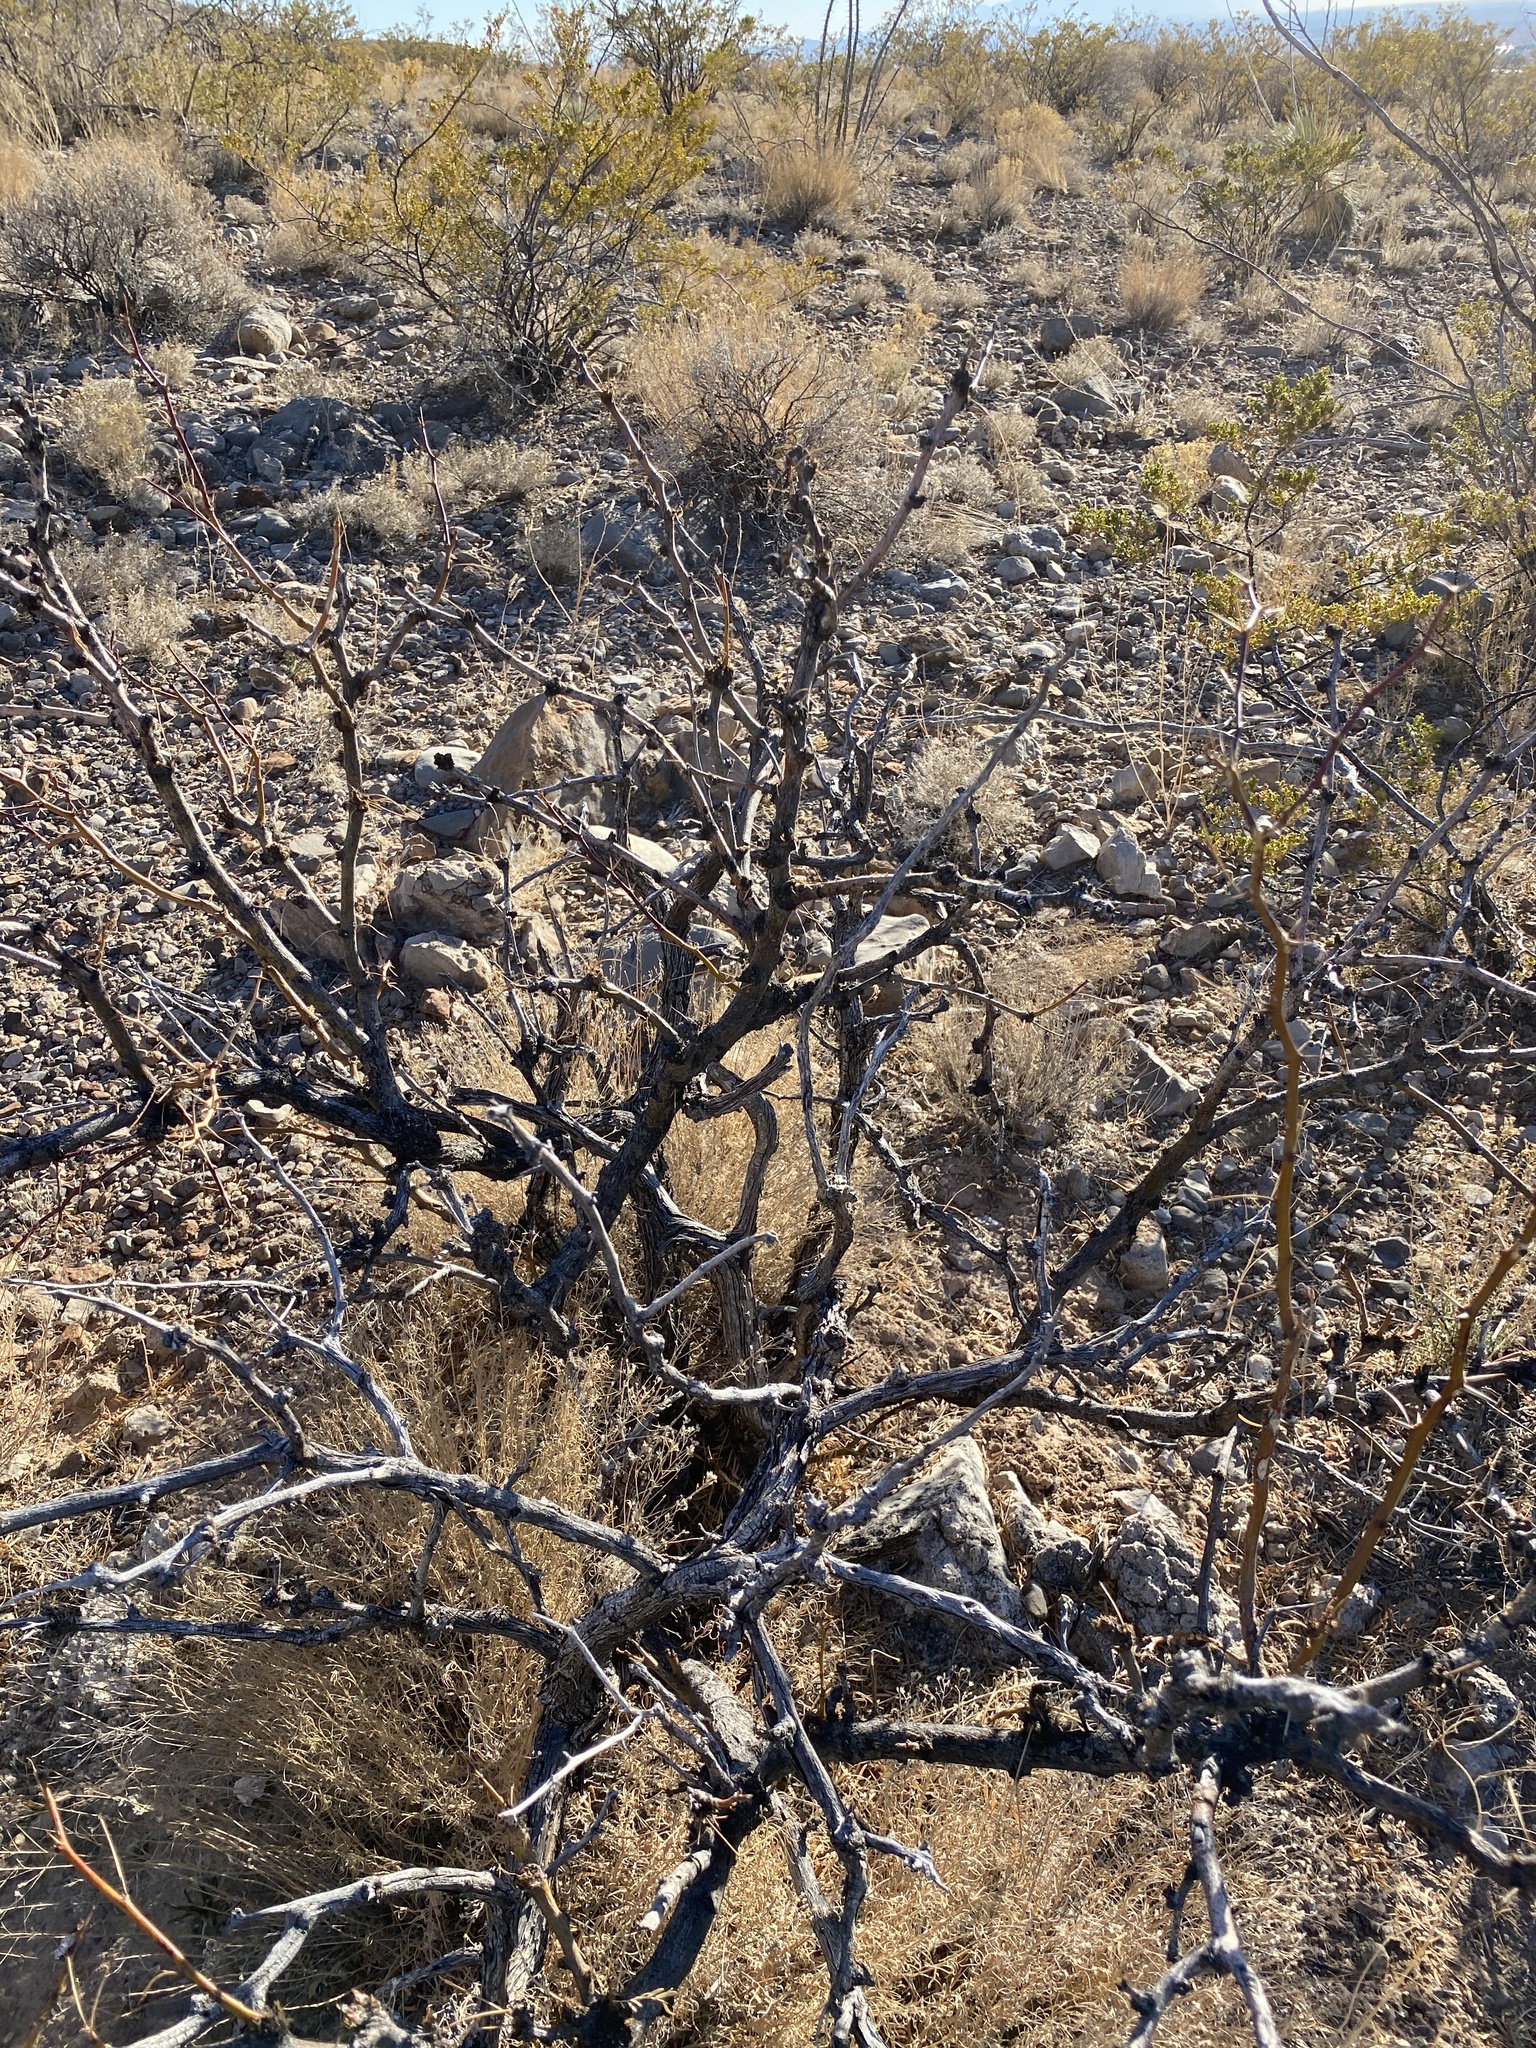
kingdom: Plantae
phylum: Tracheophyta
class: Magnoliopsida
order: Fabales
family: Fabaceae
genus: Prosopis
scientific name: Prosopis glandulosa
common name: Honey mesquite
